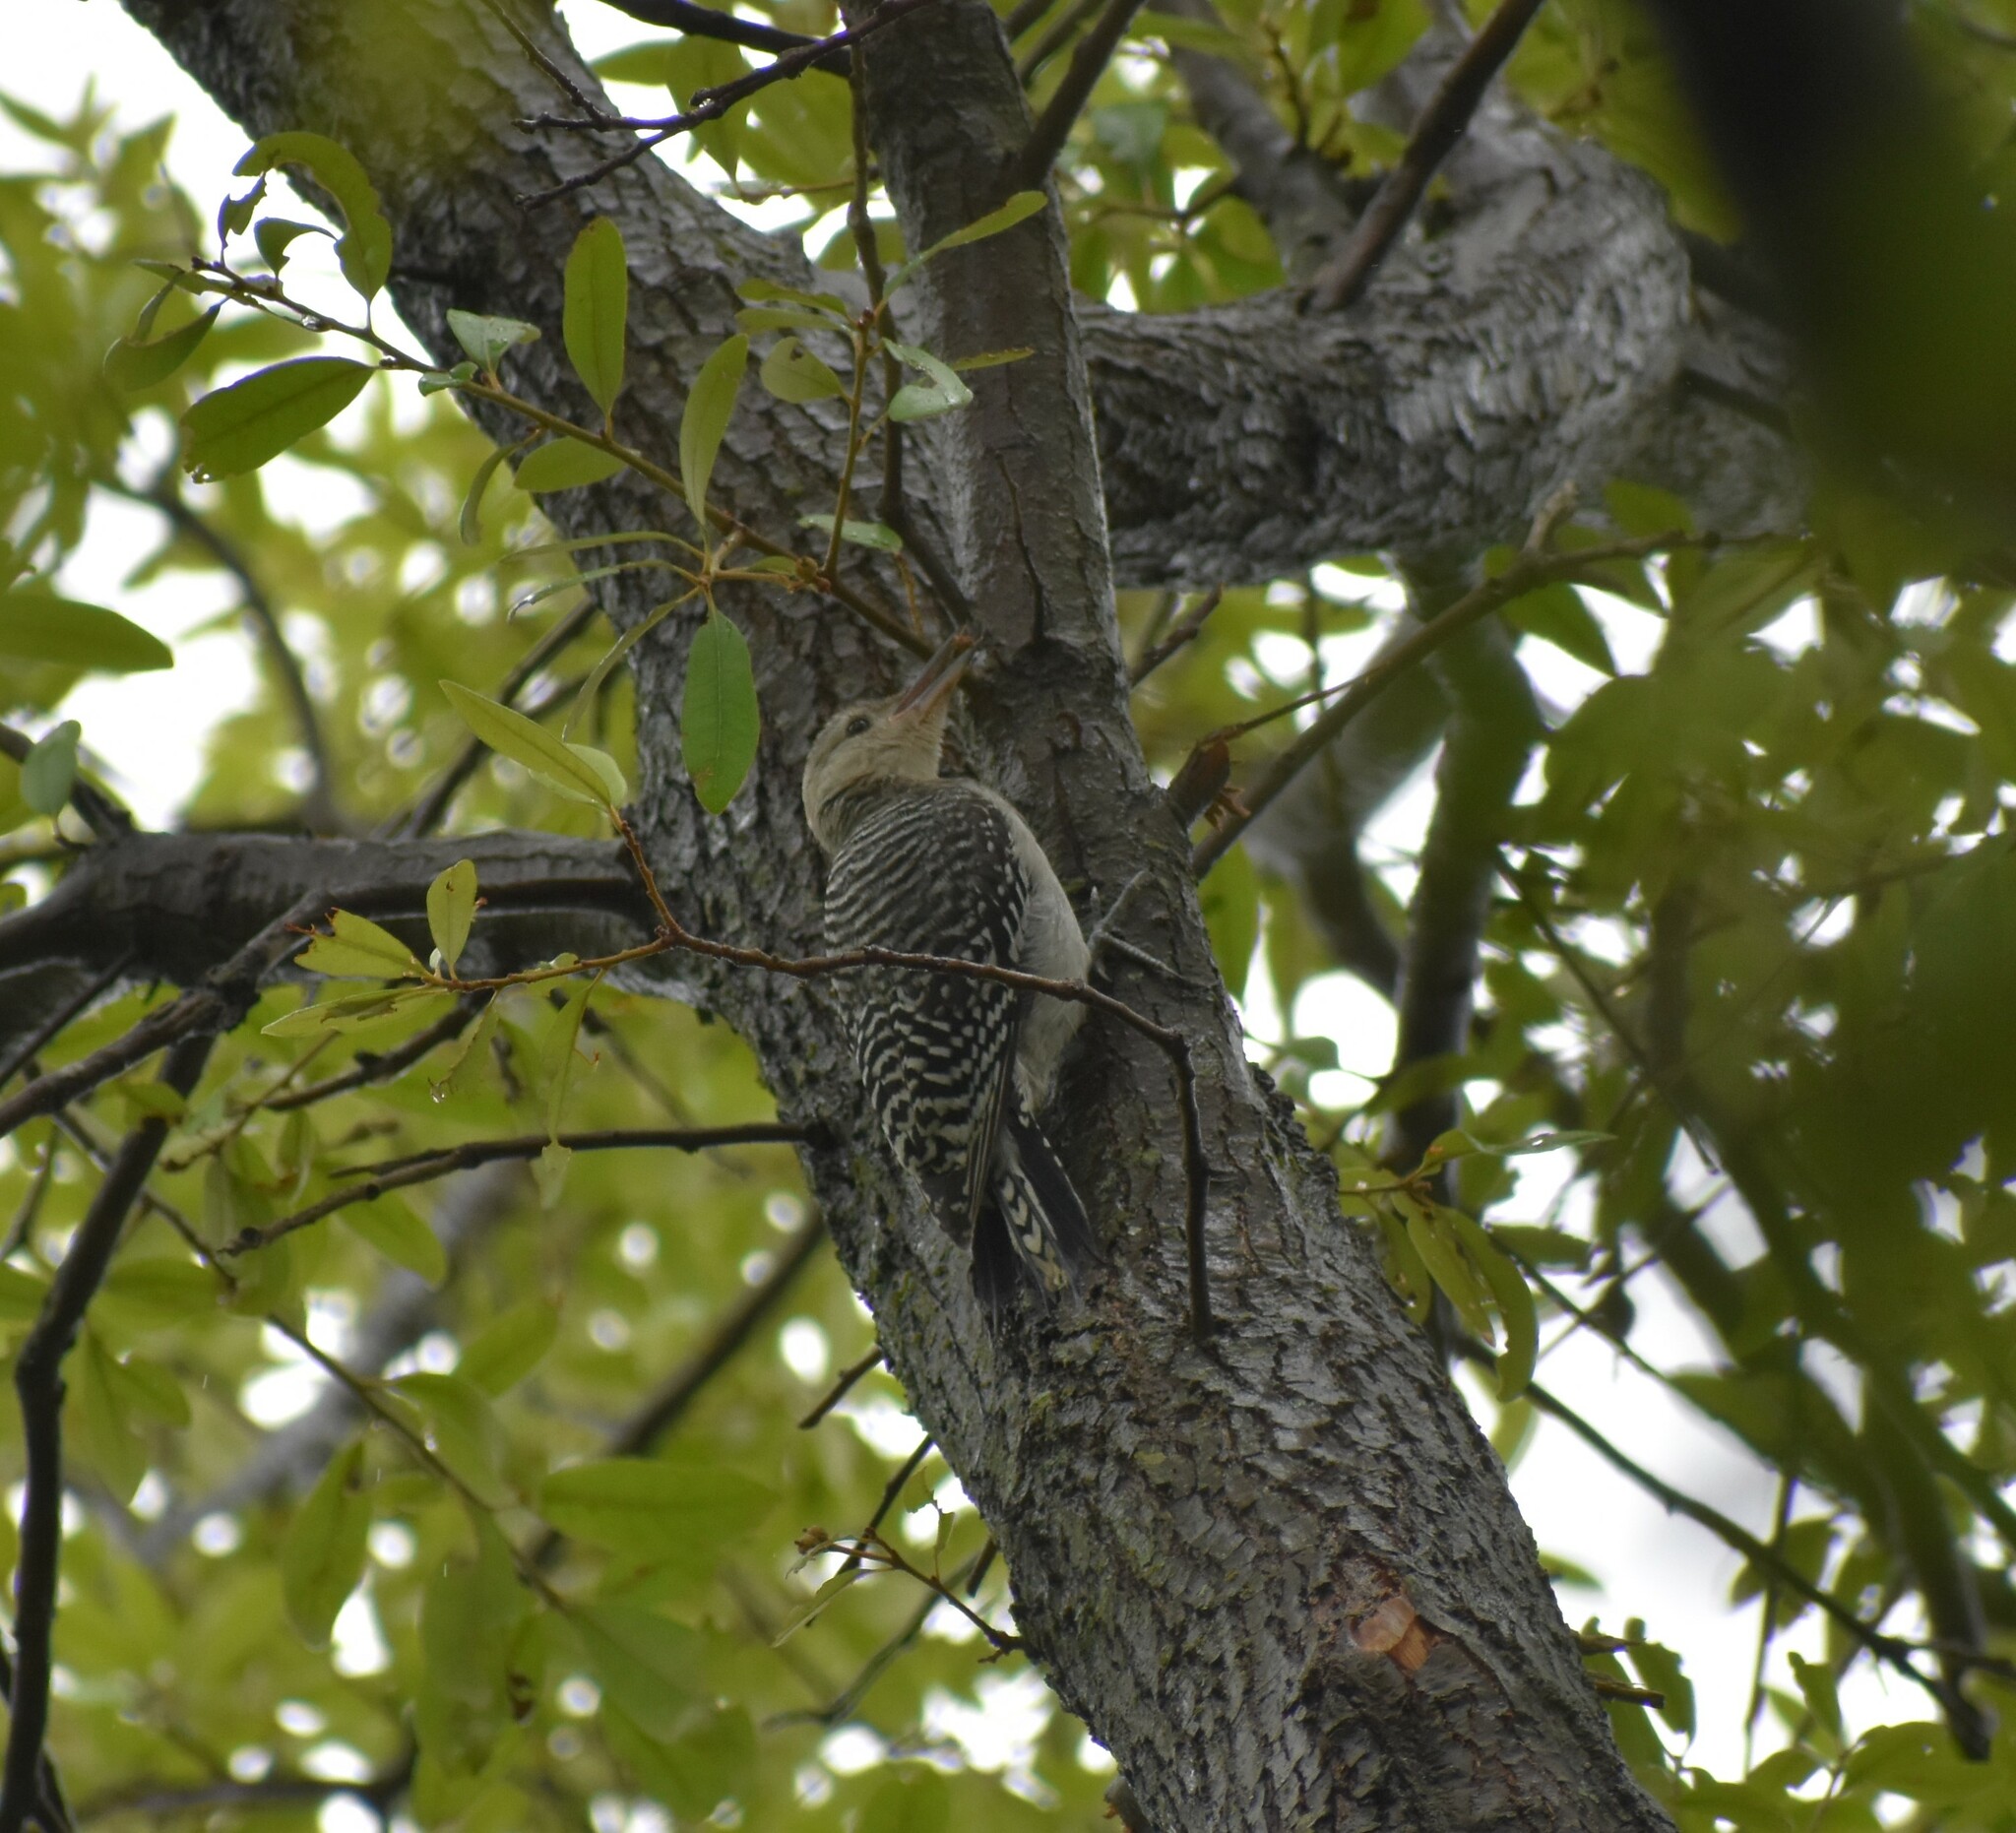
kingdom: Animalia
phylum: Chordata
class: Aves
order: Piciformes
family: Picidae
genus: Melanerpes
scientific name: Melanerpes carolinus
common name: Red-bellied woodpecker
